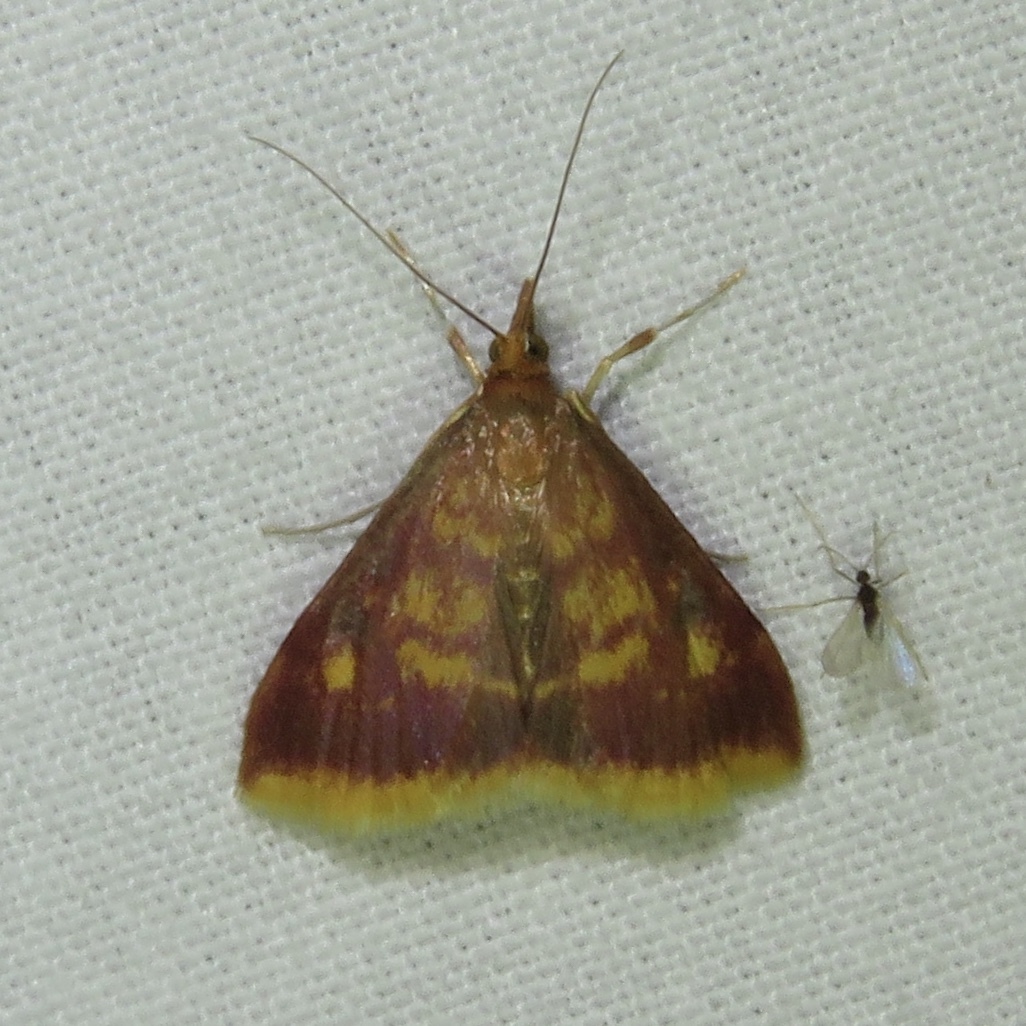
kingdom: Animalia
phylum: Arthropoda
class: Insecta
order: Lepidoptera
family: Crambidae
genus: Pyrausta
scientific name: Pyrausta acrionalis
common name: Mint-loving pyrausta moth
